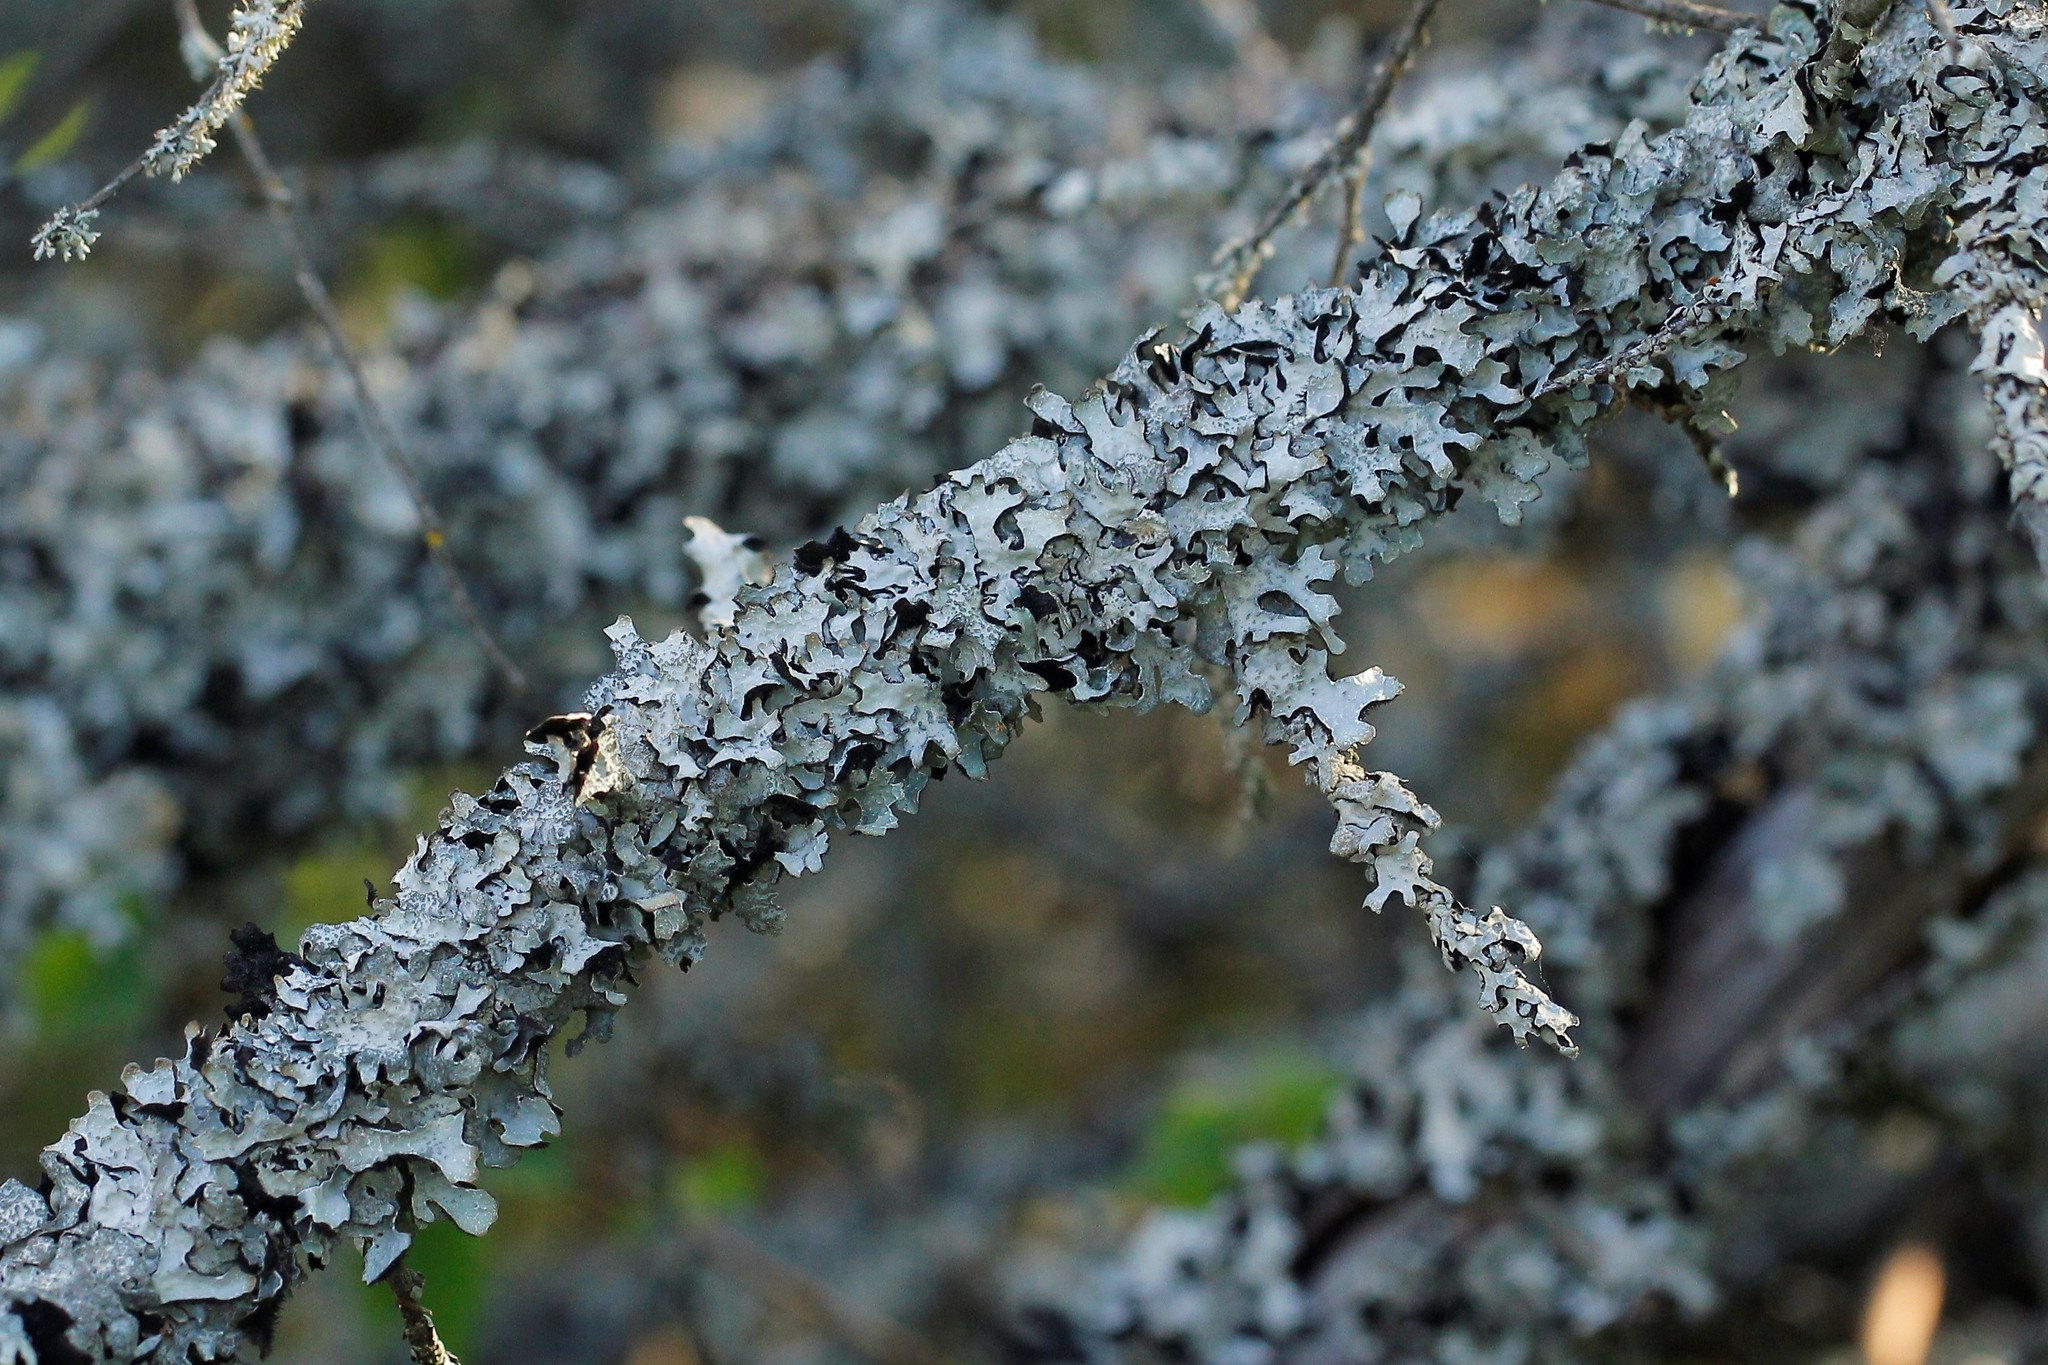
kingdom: Fungi
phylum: Ascomycota
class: Lecanoromycetes
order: Lecanorales
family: Parmeliaceae
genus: Parmelia
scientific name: Parmelia sulcata
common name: Netted shield lichen
